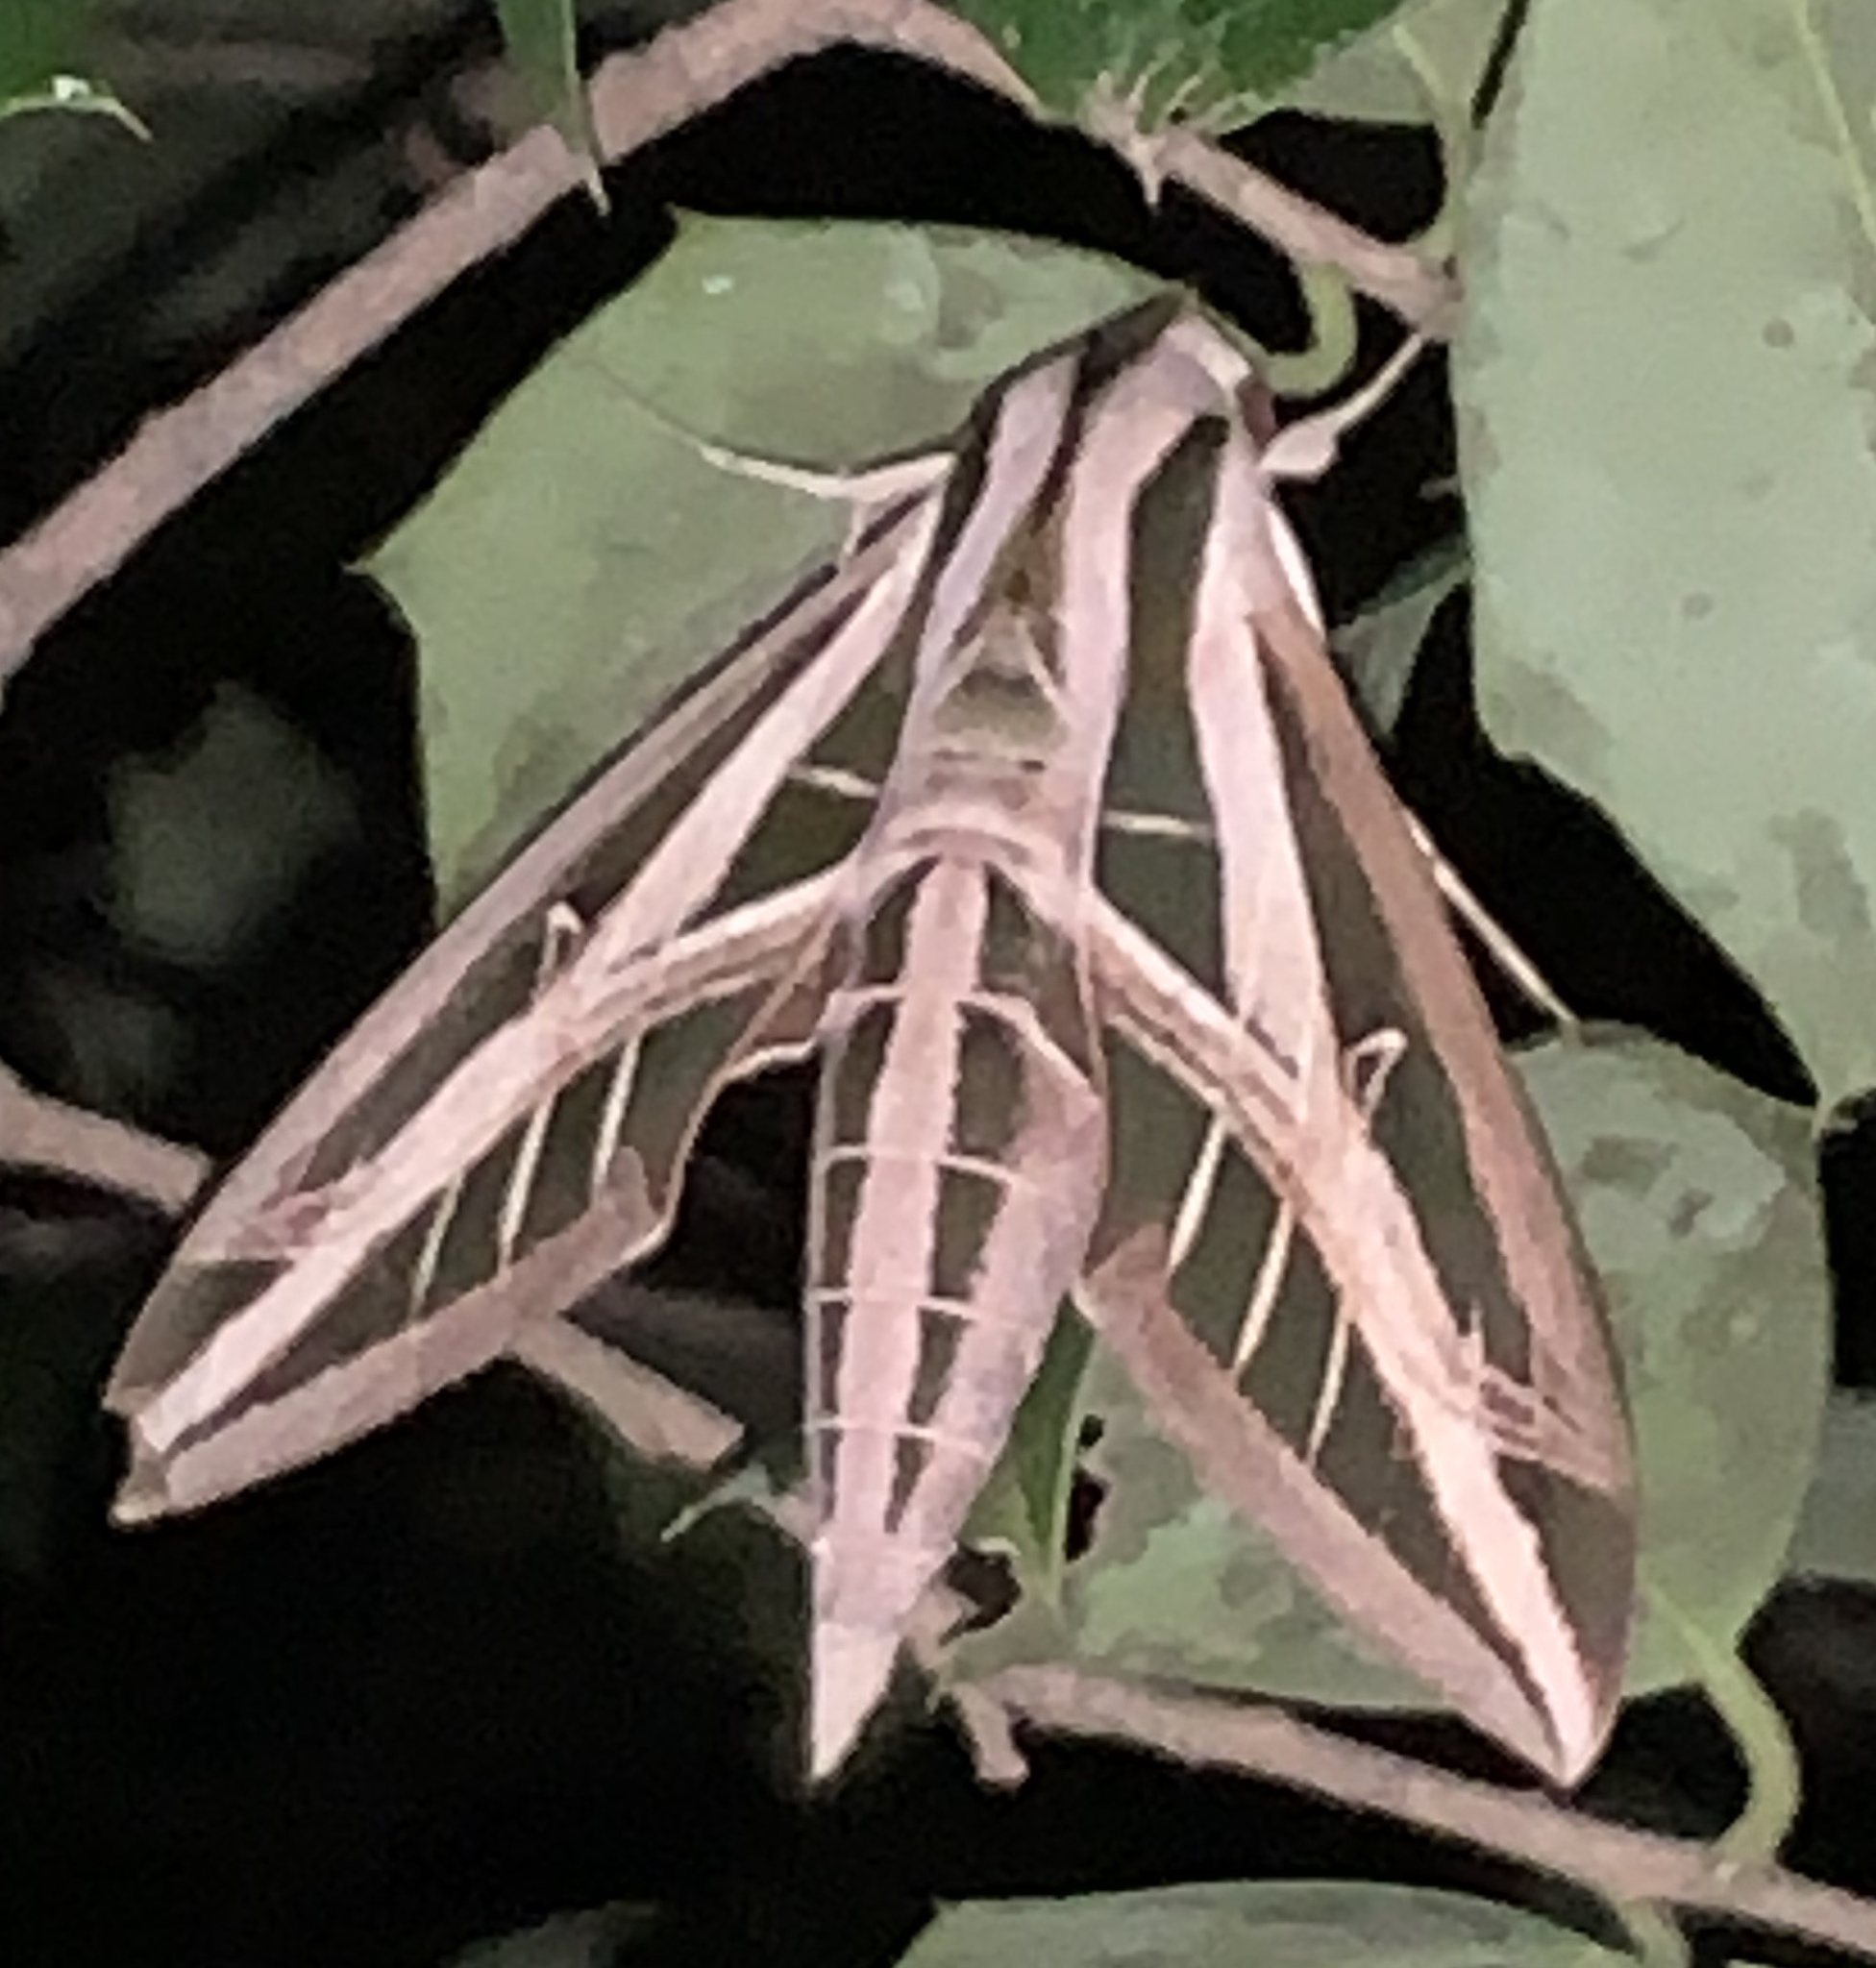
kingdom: Animalia
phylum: Arthropoda
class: Insecta
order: Lepidoptera
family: Sphingidae
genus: Eumorpha
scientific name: Eumorpha fasciatus
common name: Banded sphinx
